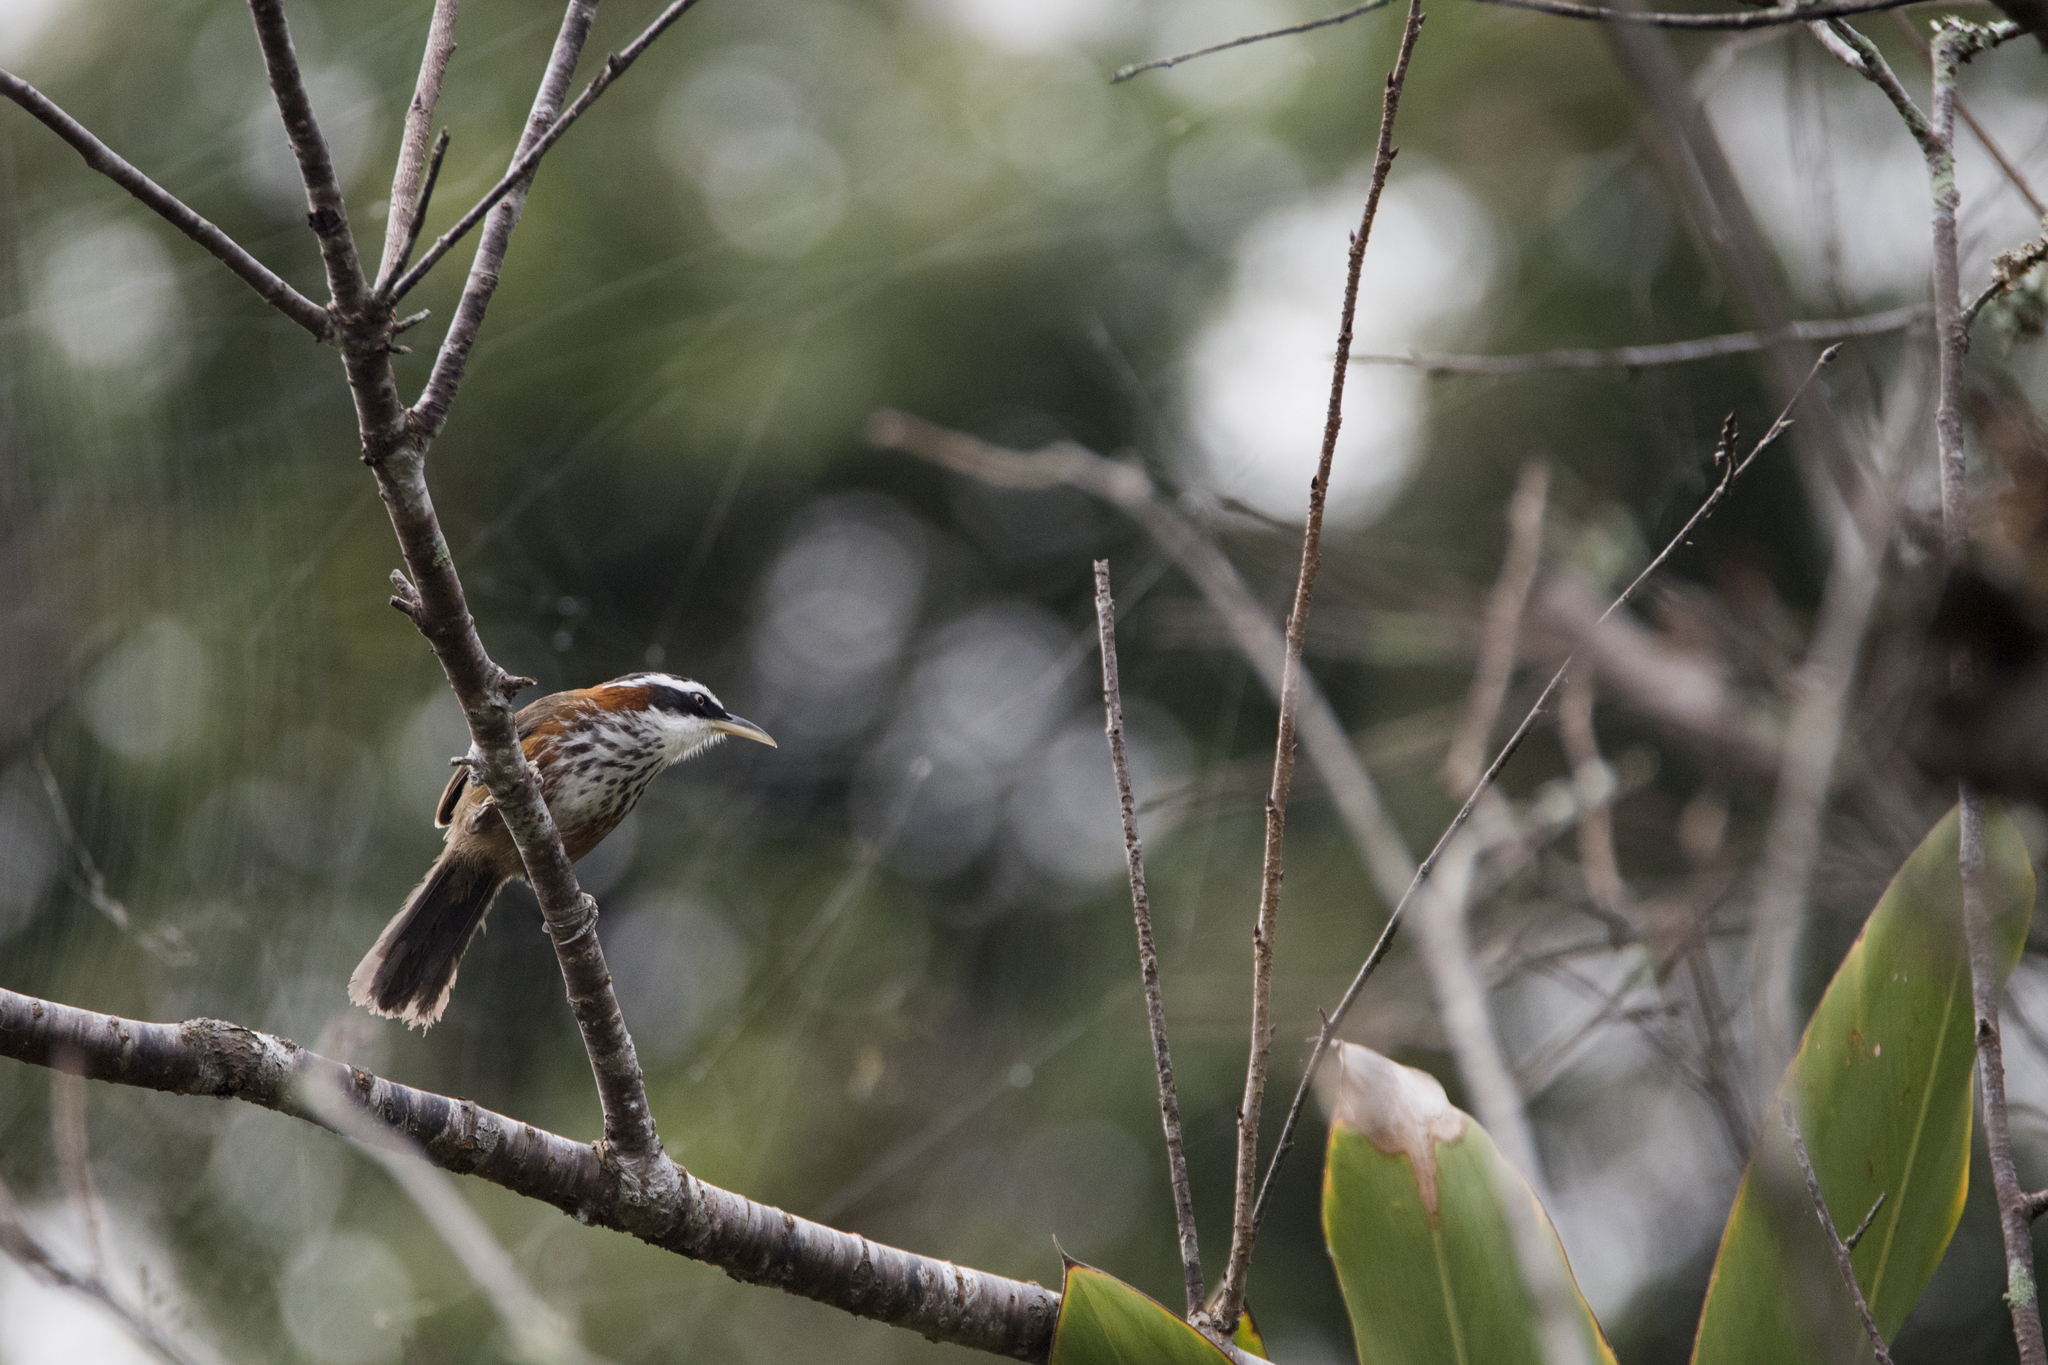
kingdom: Animalia
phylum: Chordata
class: Aves
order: Passeriformes
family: Timaliidae
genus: Pomatorhinus
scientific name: Pomatorhinus musicus
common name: Taiwan scimitar-babbler
